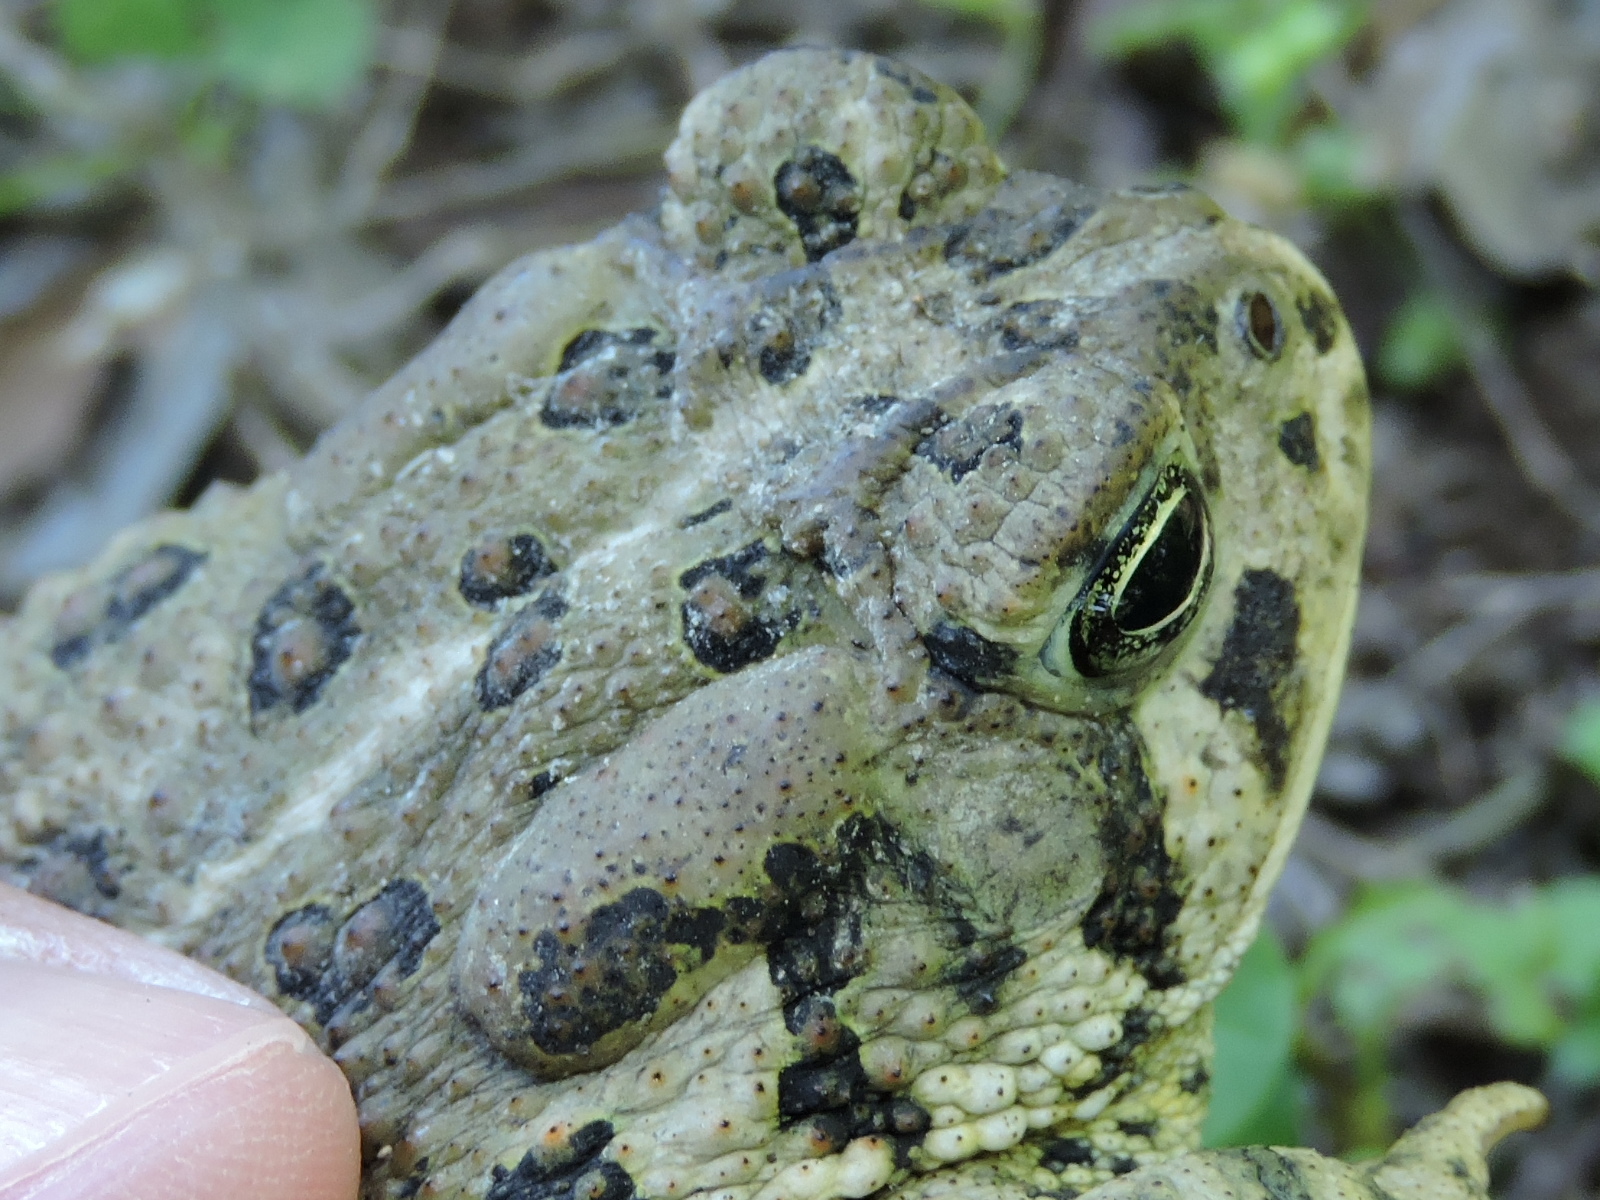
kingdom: Animalia
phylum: Chordata
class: Amphibia
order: Anura
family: Bufonidae
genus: Anaxyrus
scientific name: Anaxyrus woodhousii
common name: Woodhouse's toad
